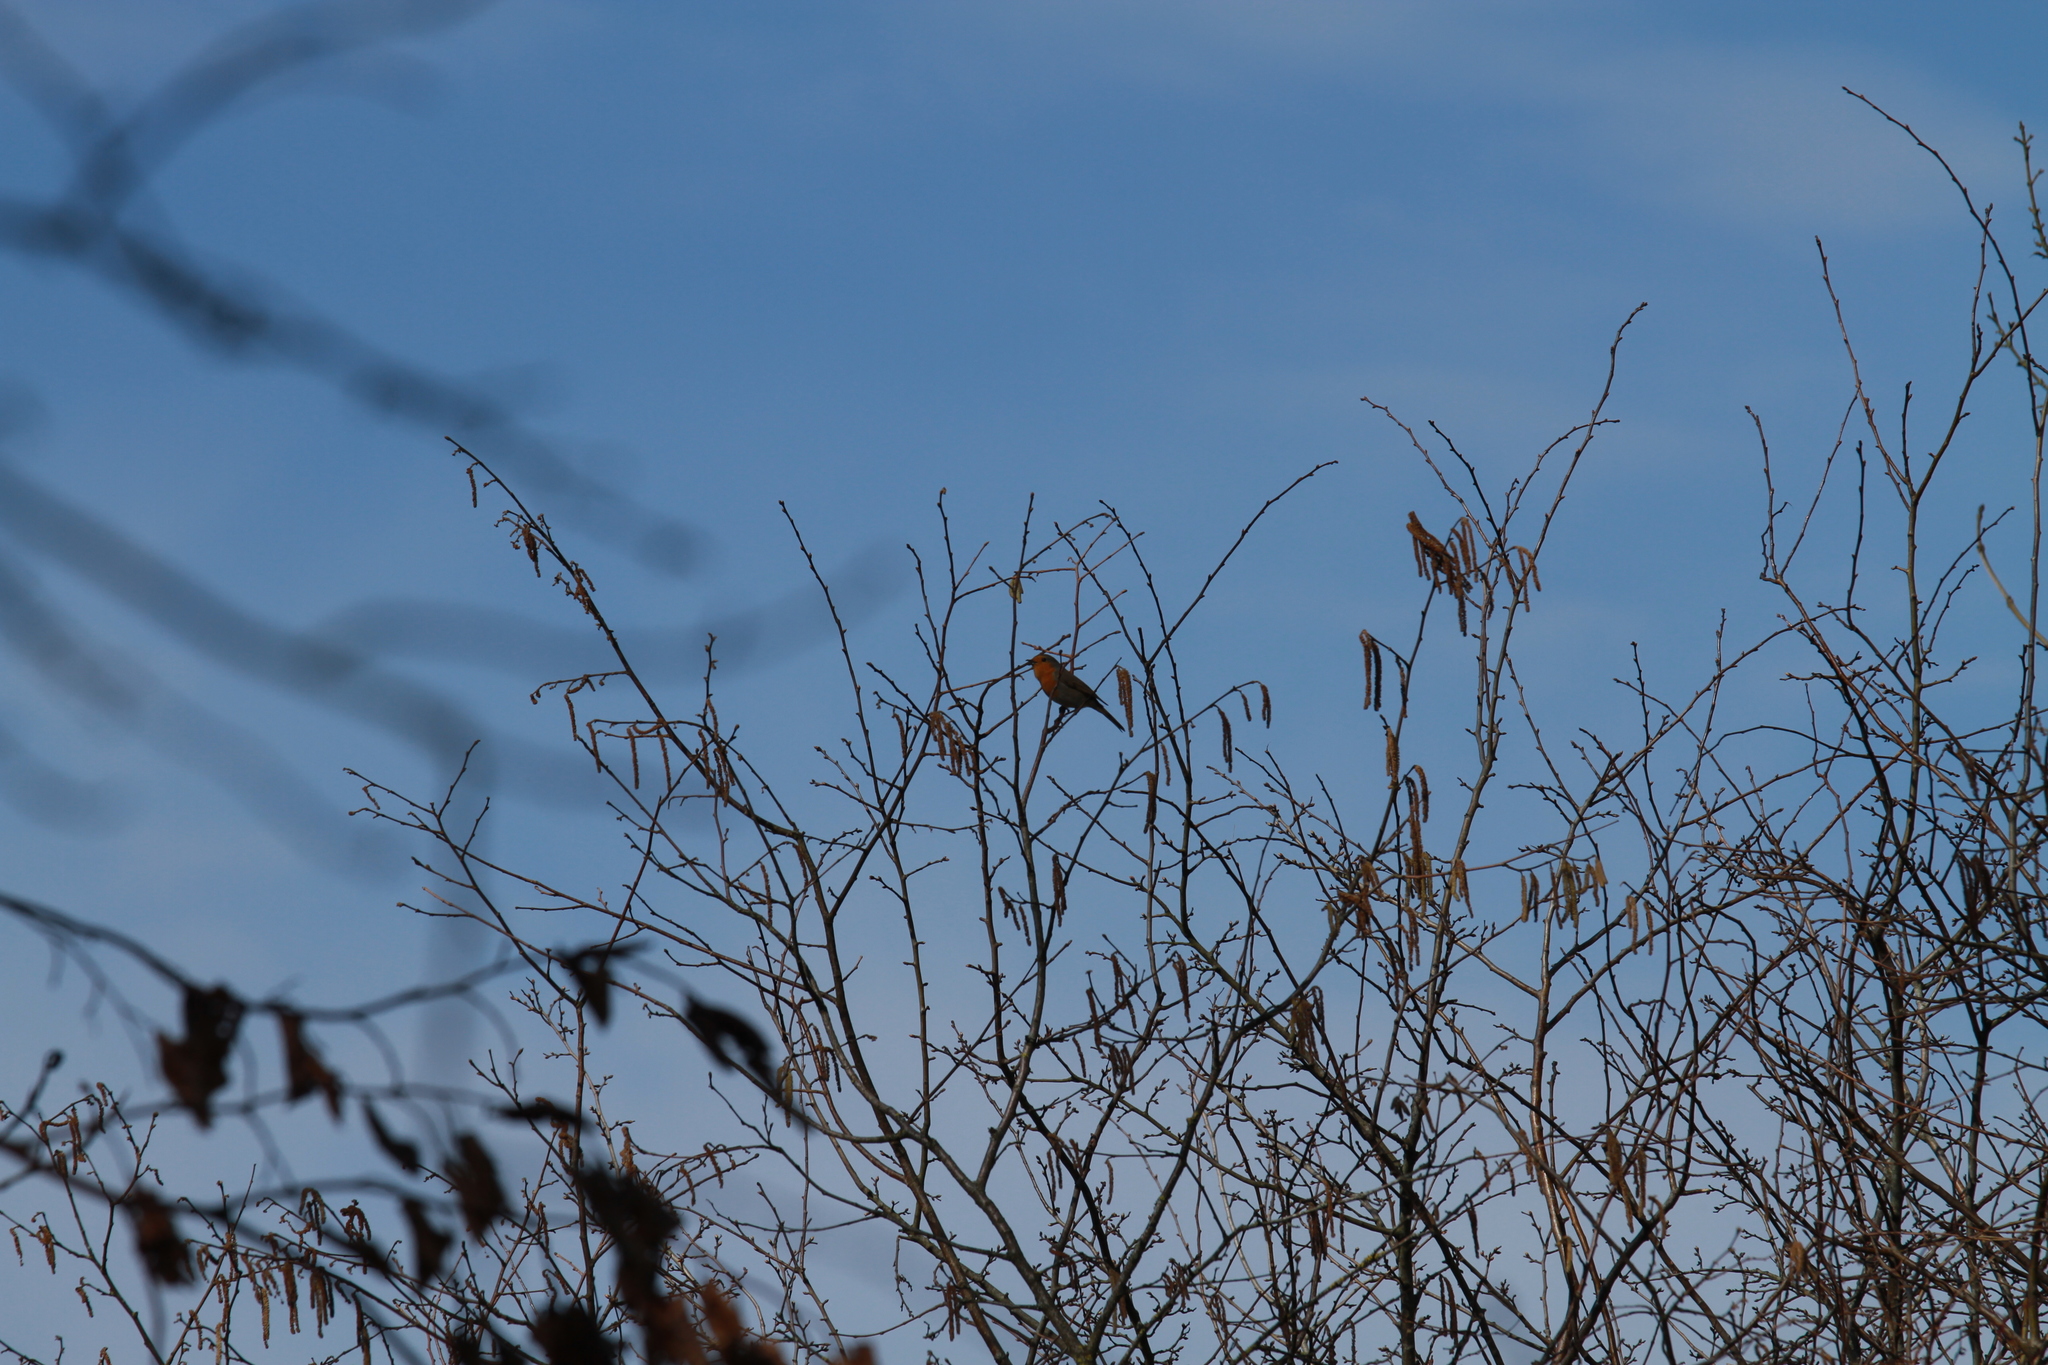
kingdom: Animalia
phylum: Chordata
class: Aves
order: Passeriformes
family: Muscicapidae
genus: Erithacus
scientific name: Erithacus rubecula
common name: European robin
